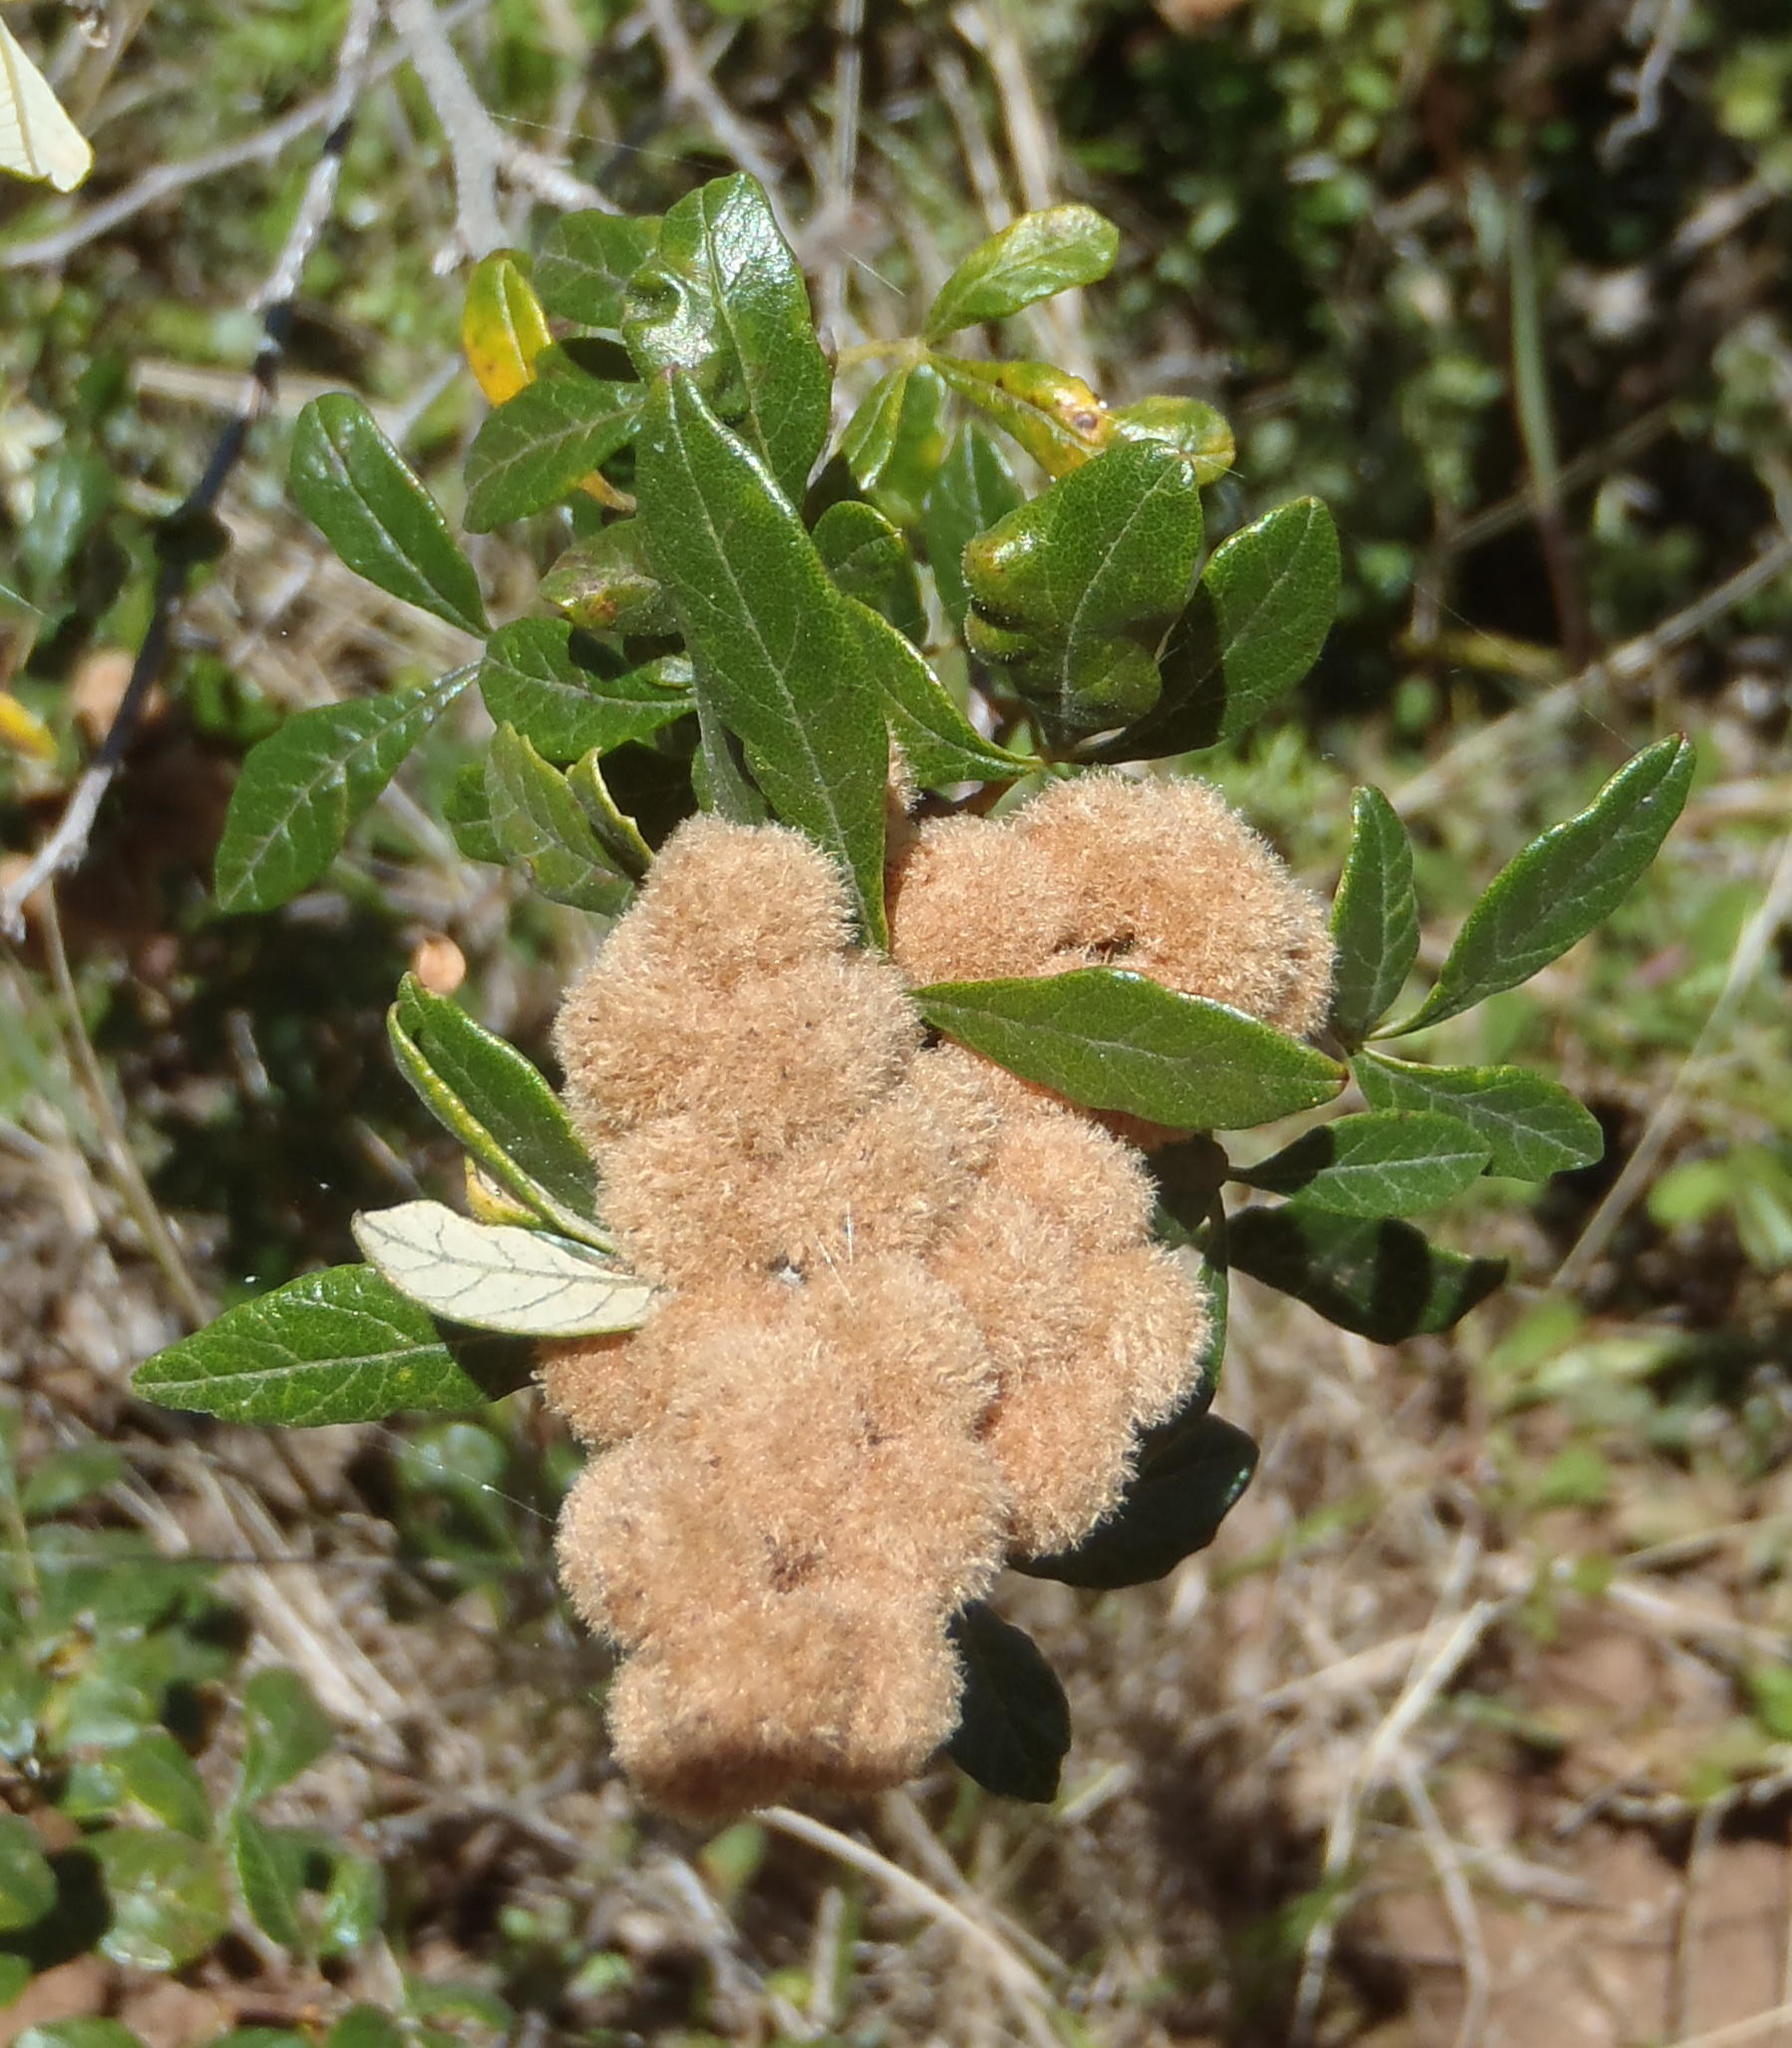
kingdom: Plantae
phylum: Tracheophyta
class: Magnoliopsida
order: Sapindales
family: Anacardiaceae
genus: Searsia
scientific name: Searsia incisa
